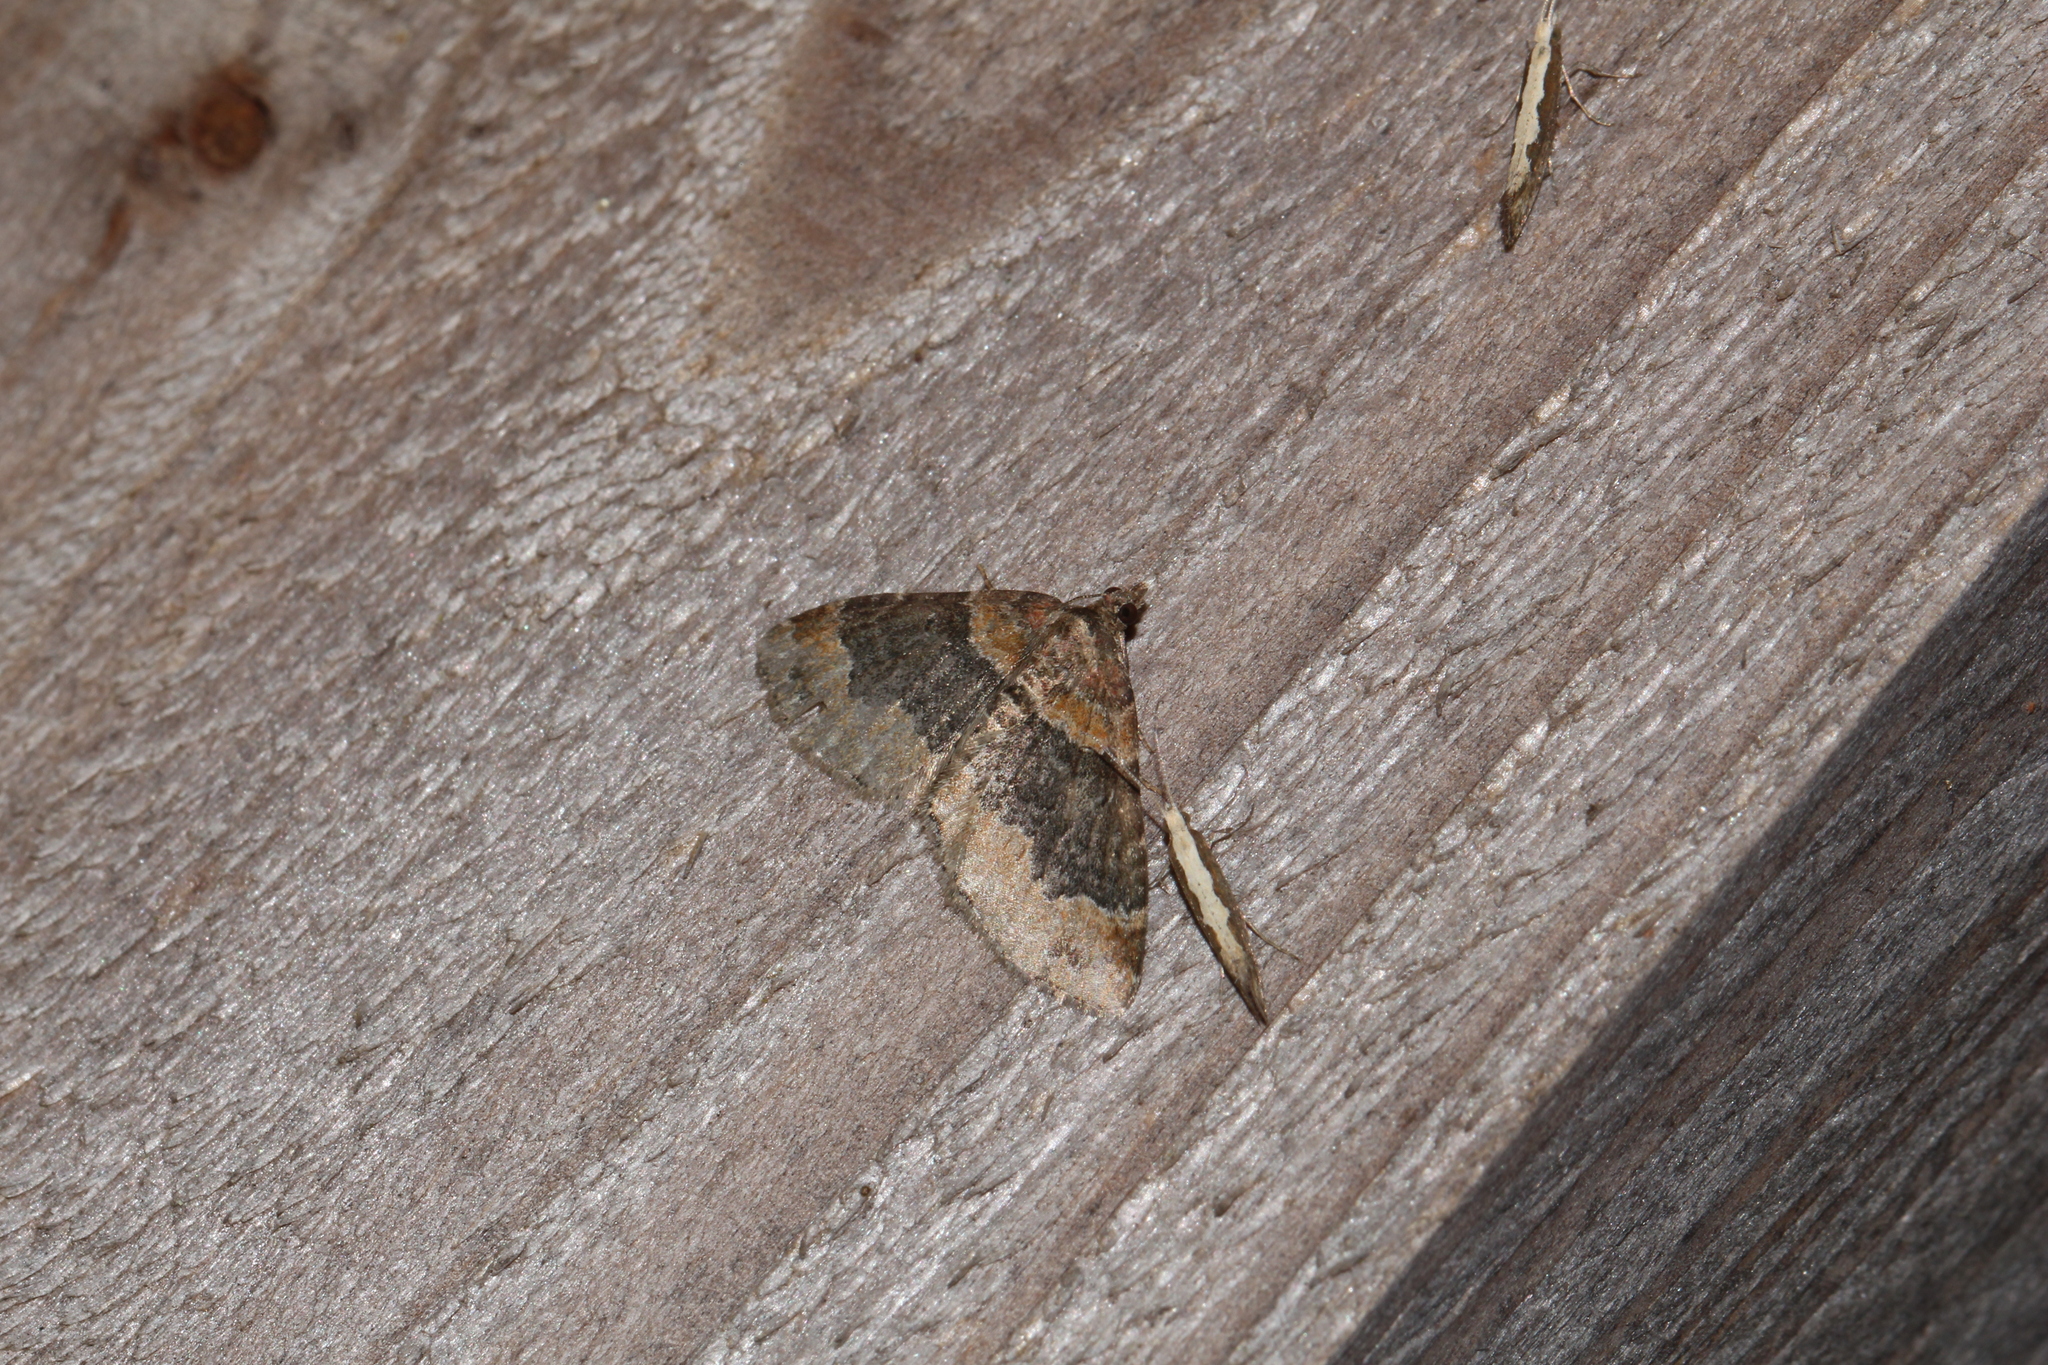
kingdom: Animalia
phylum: Arthropoda
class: Insecta
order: Lepidoptera
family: Geometridae
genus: Xanthorhoe
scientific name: Xanthorhoe ferrugata
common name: Dark-barred twin-spot carpet
